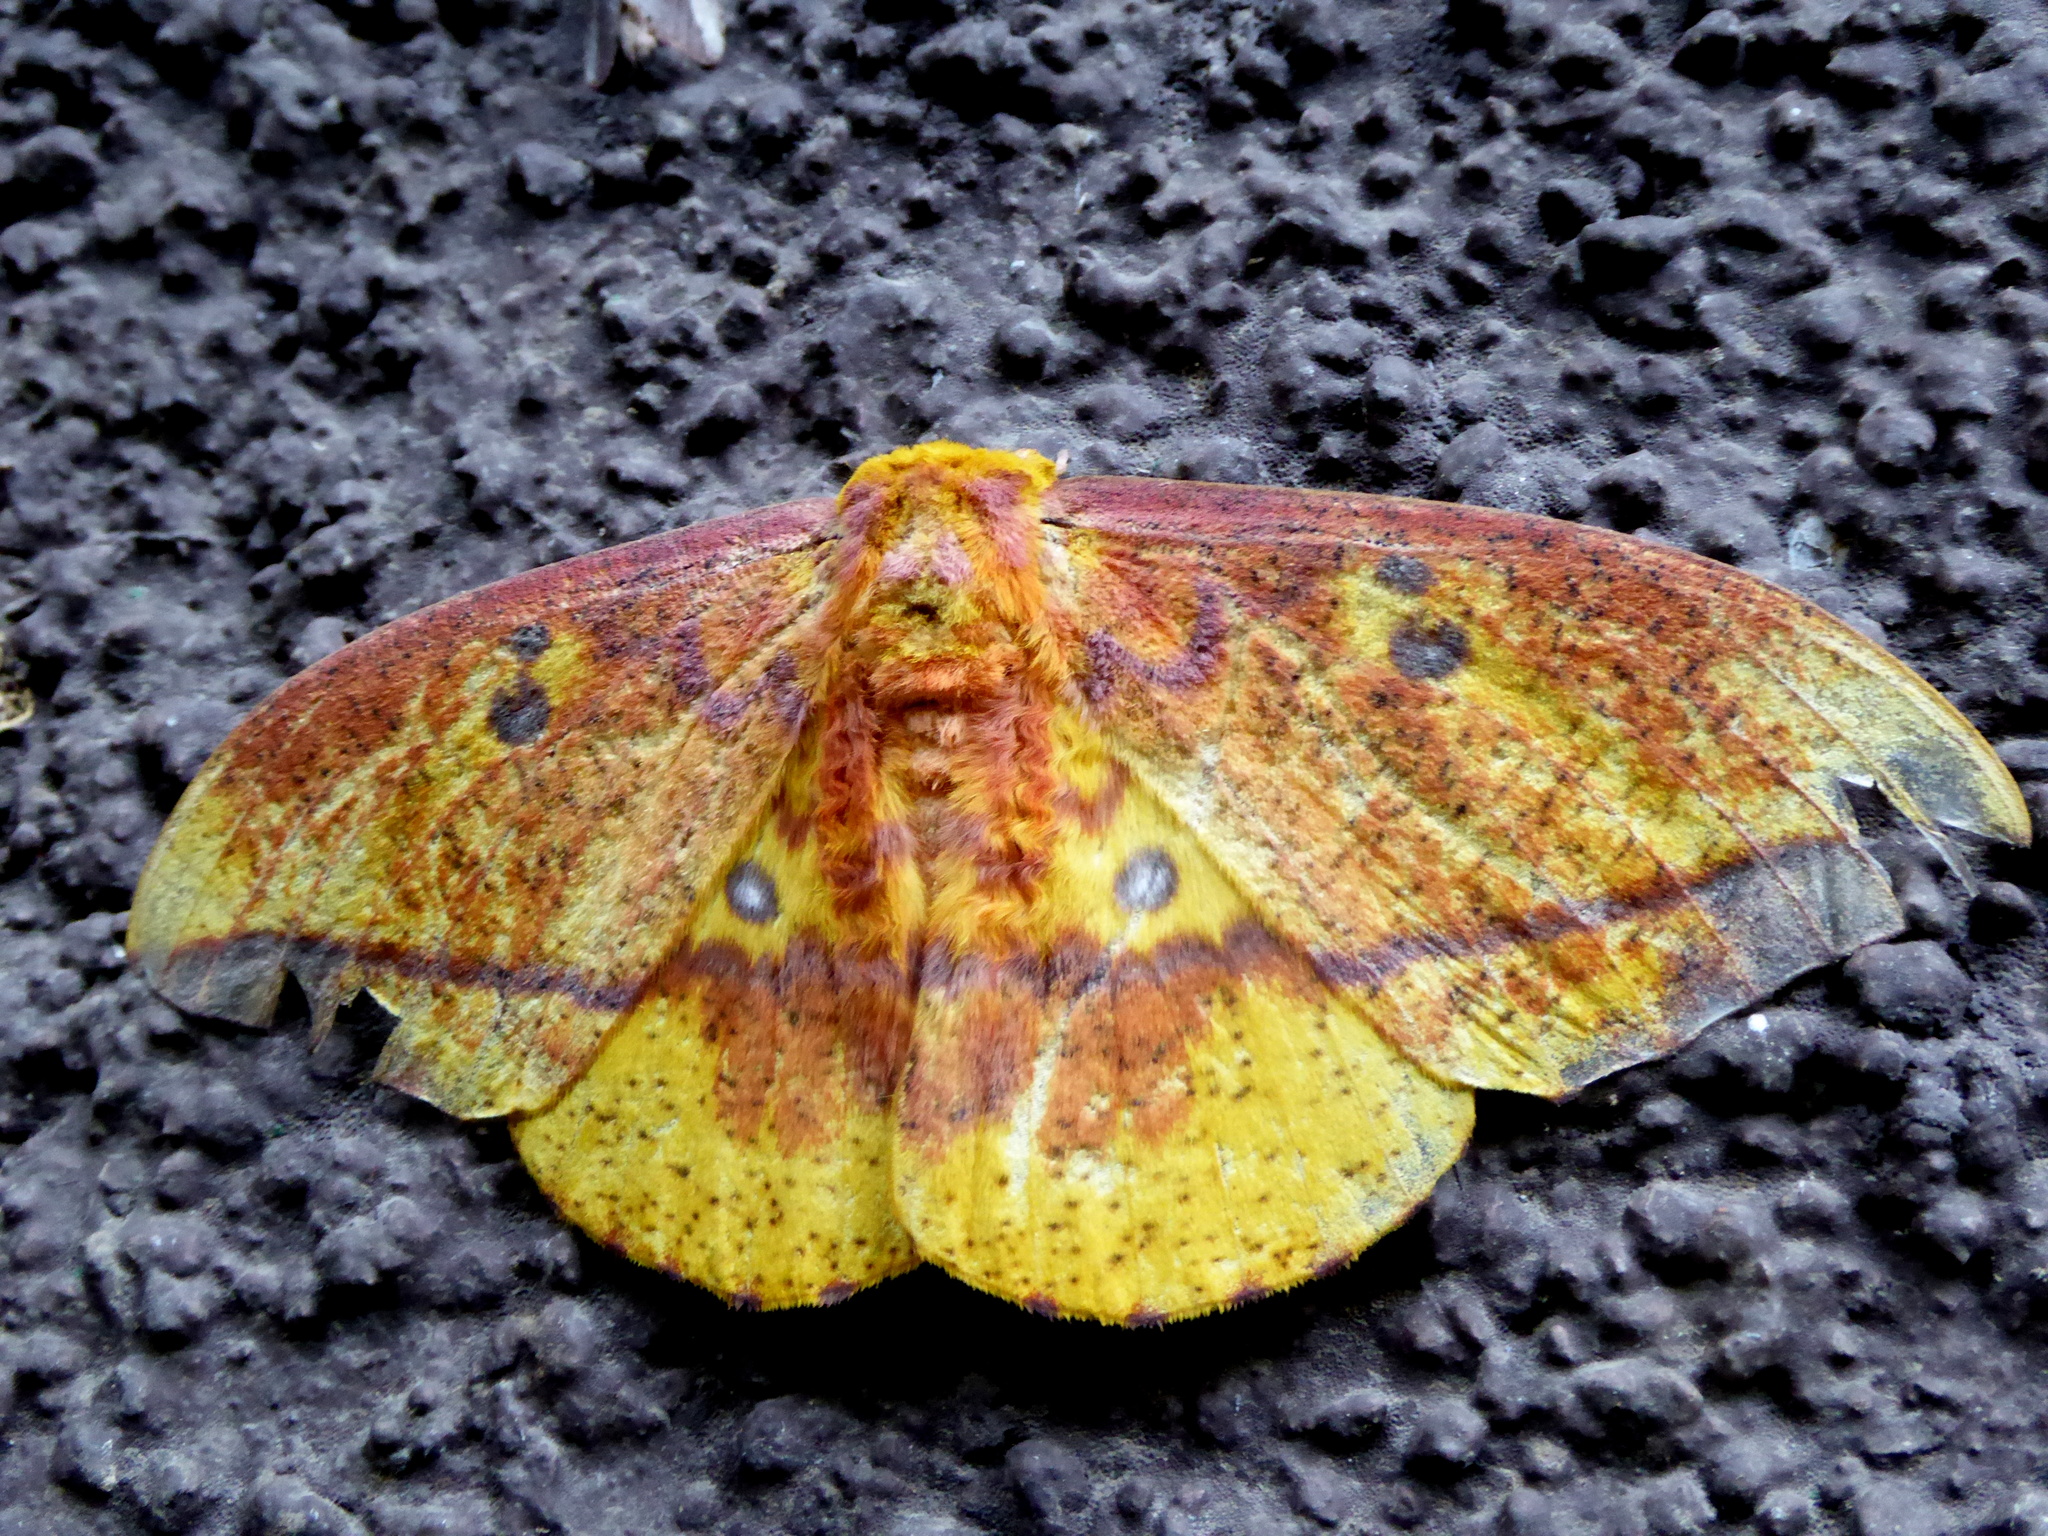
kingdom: Animalia
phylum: Arthropoda
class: Insecta
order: Lepidoptera
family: Saturniidae
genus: Eacles
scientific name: Eacles ormondei
